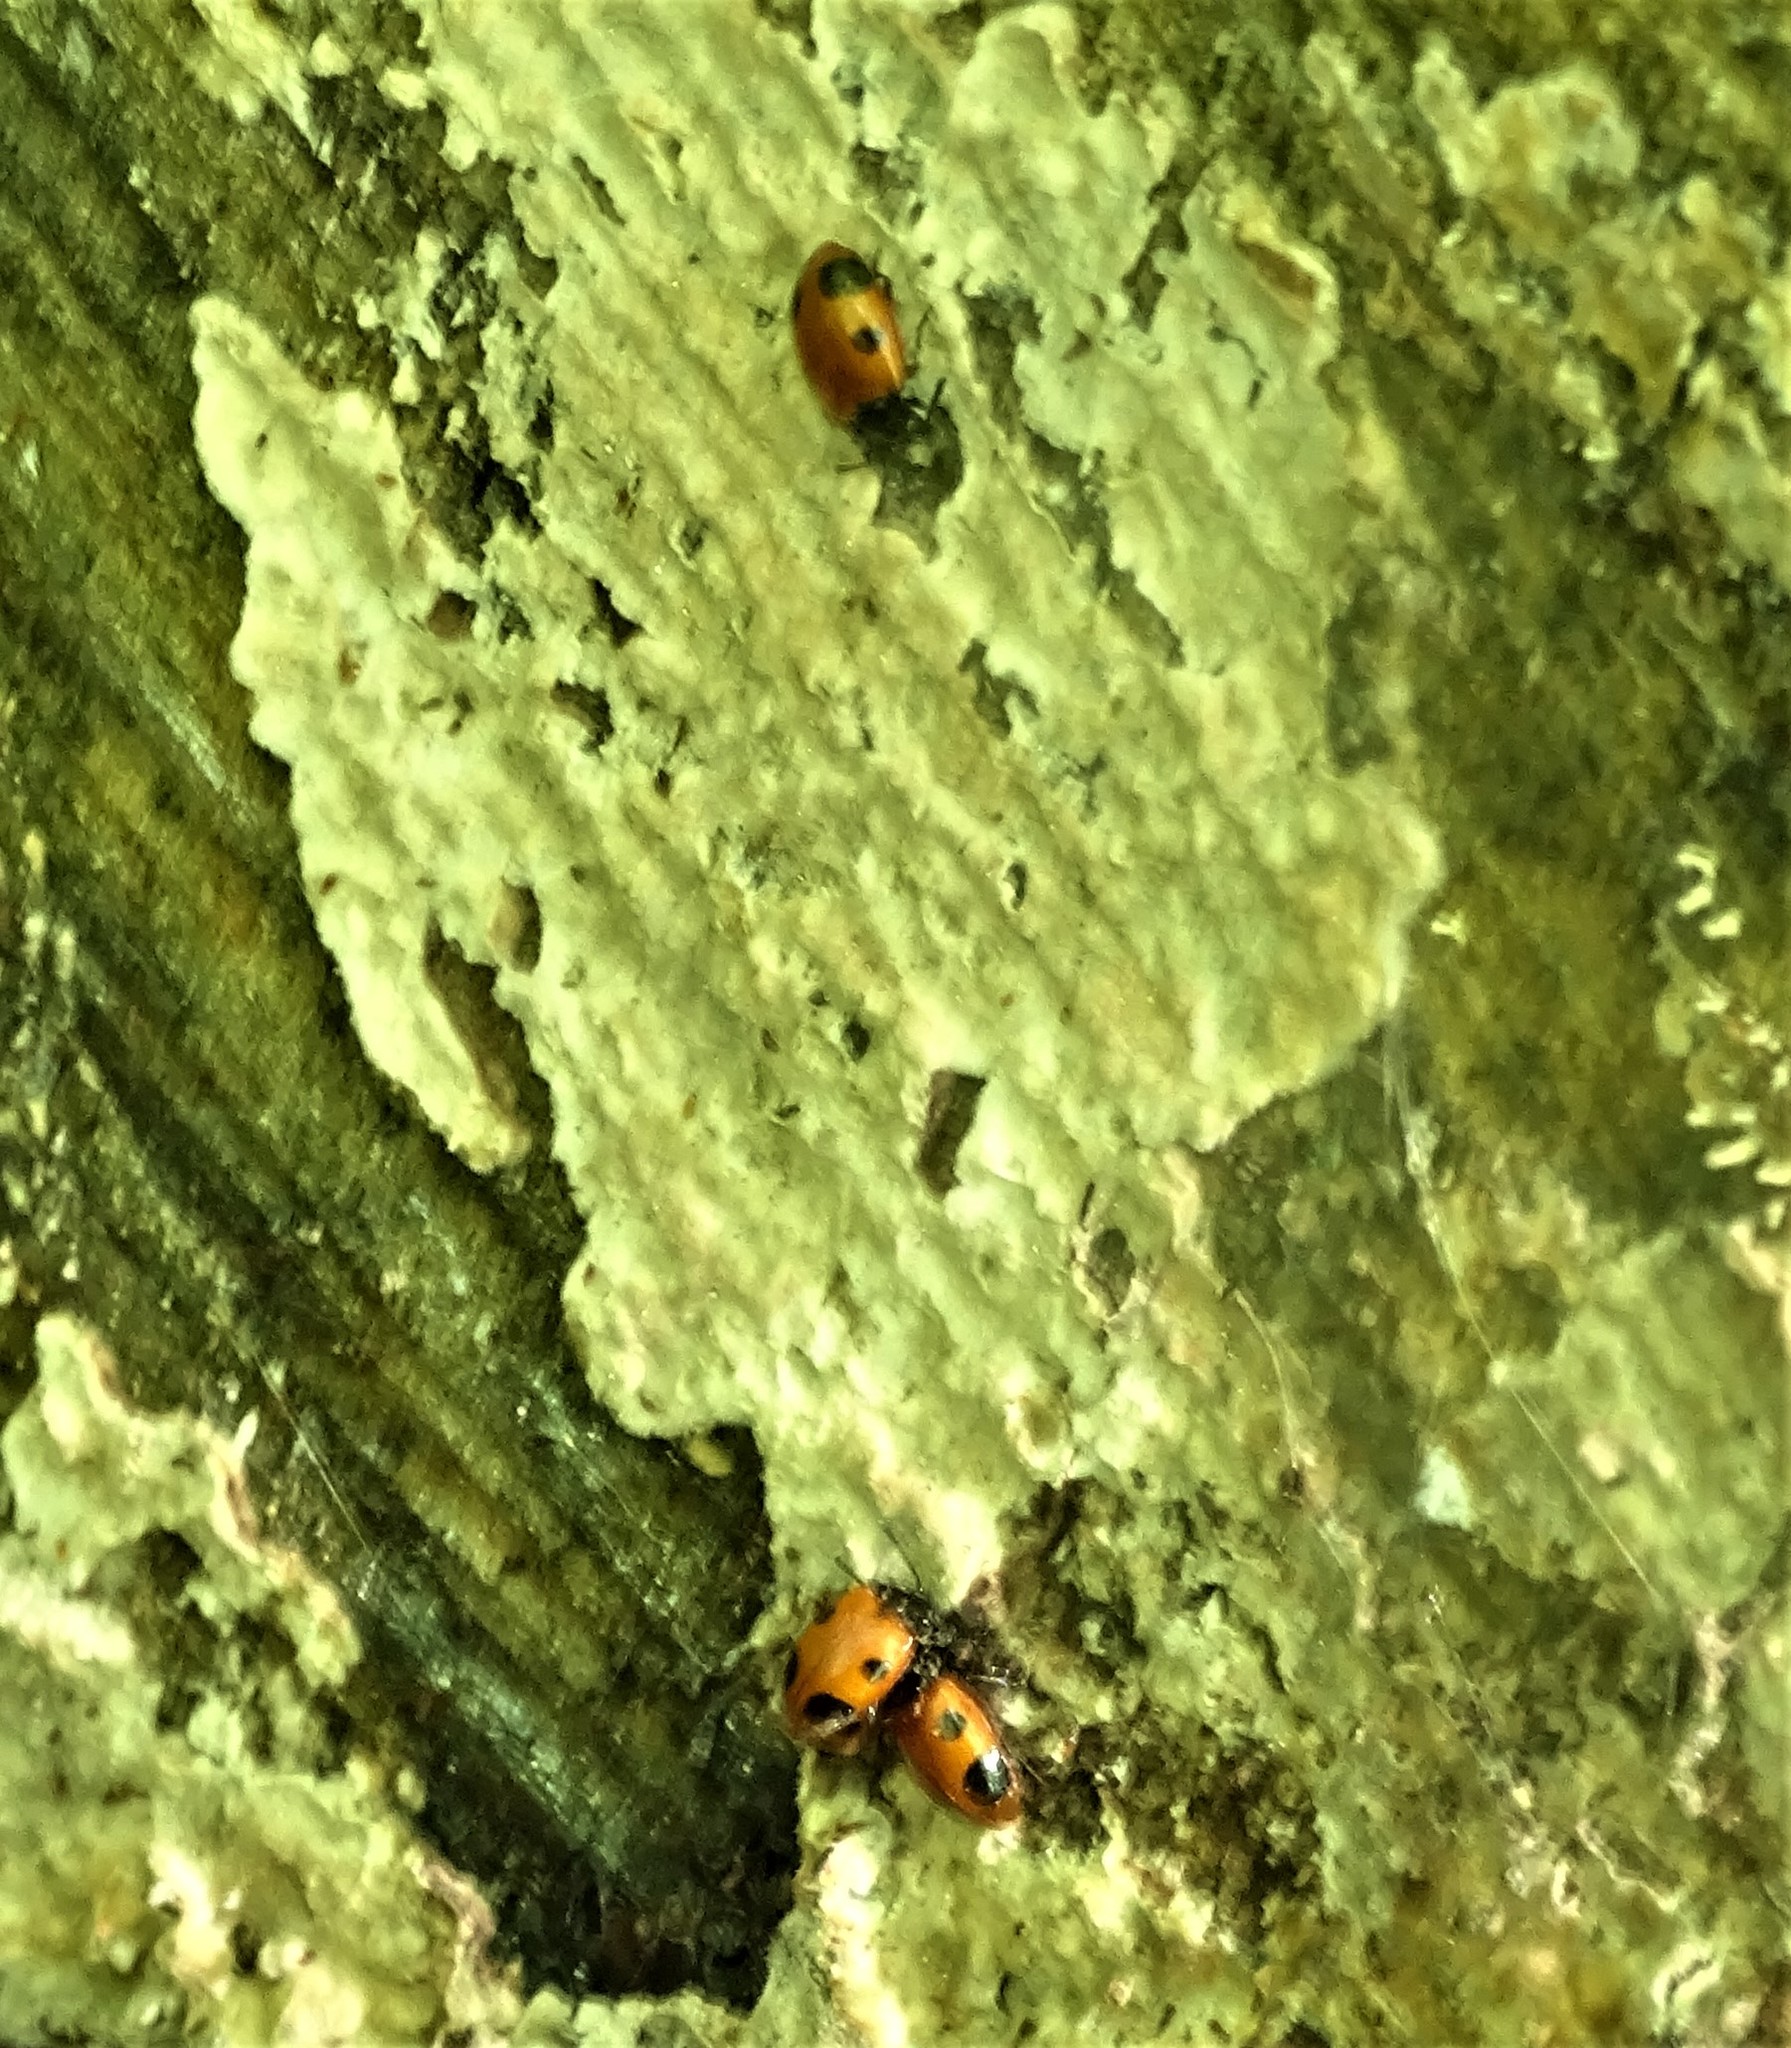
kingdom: Animalia
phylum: Arthropoda
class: Insecta
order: Coleoptera
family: Endomychidae
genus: Endomychus
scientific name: Endomychus biguttatus
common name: Handsome fungus beetle
